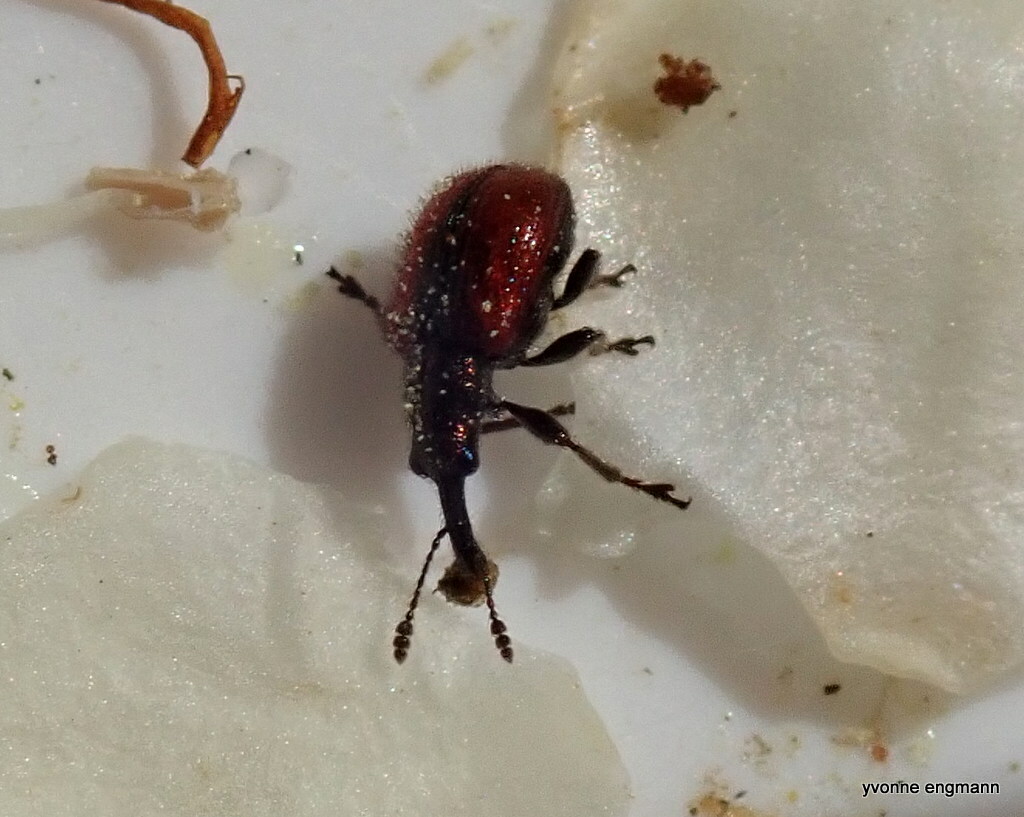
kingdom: Animalia
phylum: Arthropoda
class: Insecta
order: Coleoptera
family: Rhynchitidae
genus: Tatianaerhynchites
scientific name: Tatianaerhynchites aequatus
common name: Apple fruit rhynchites
